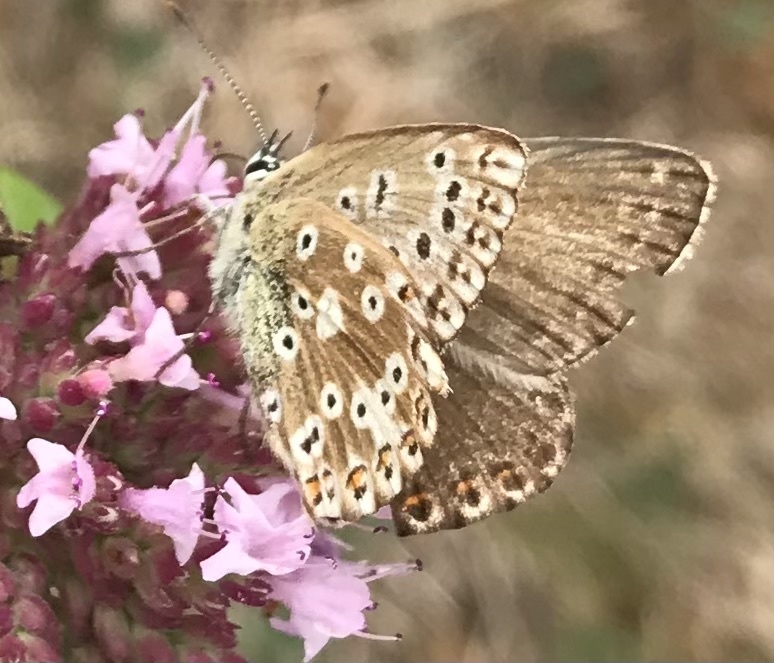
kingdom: Animalia
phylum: Arthropoda
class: Insecta
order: Lepidoptera
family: Lycaenidae
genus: Lysandra
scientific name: Lysandra coridon
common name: Chalkhill blue
